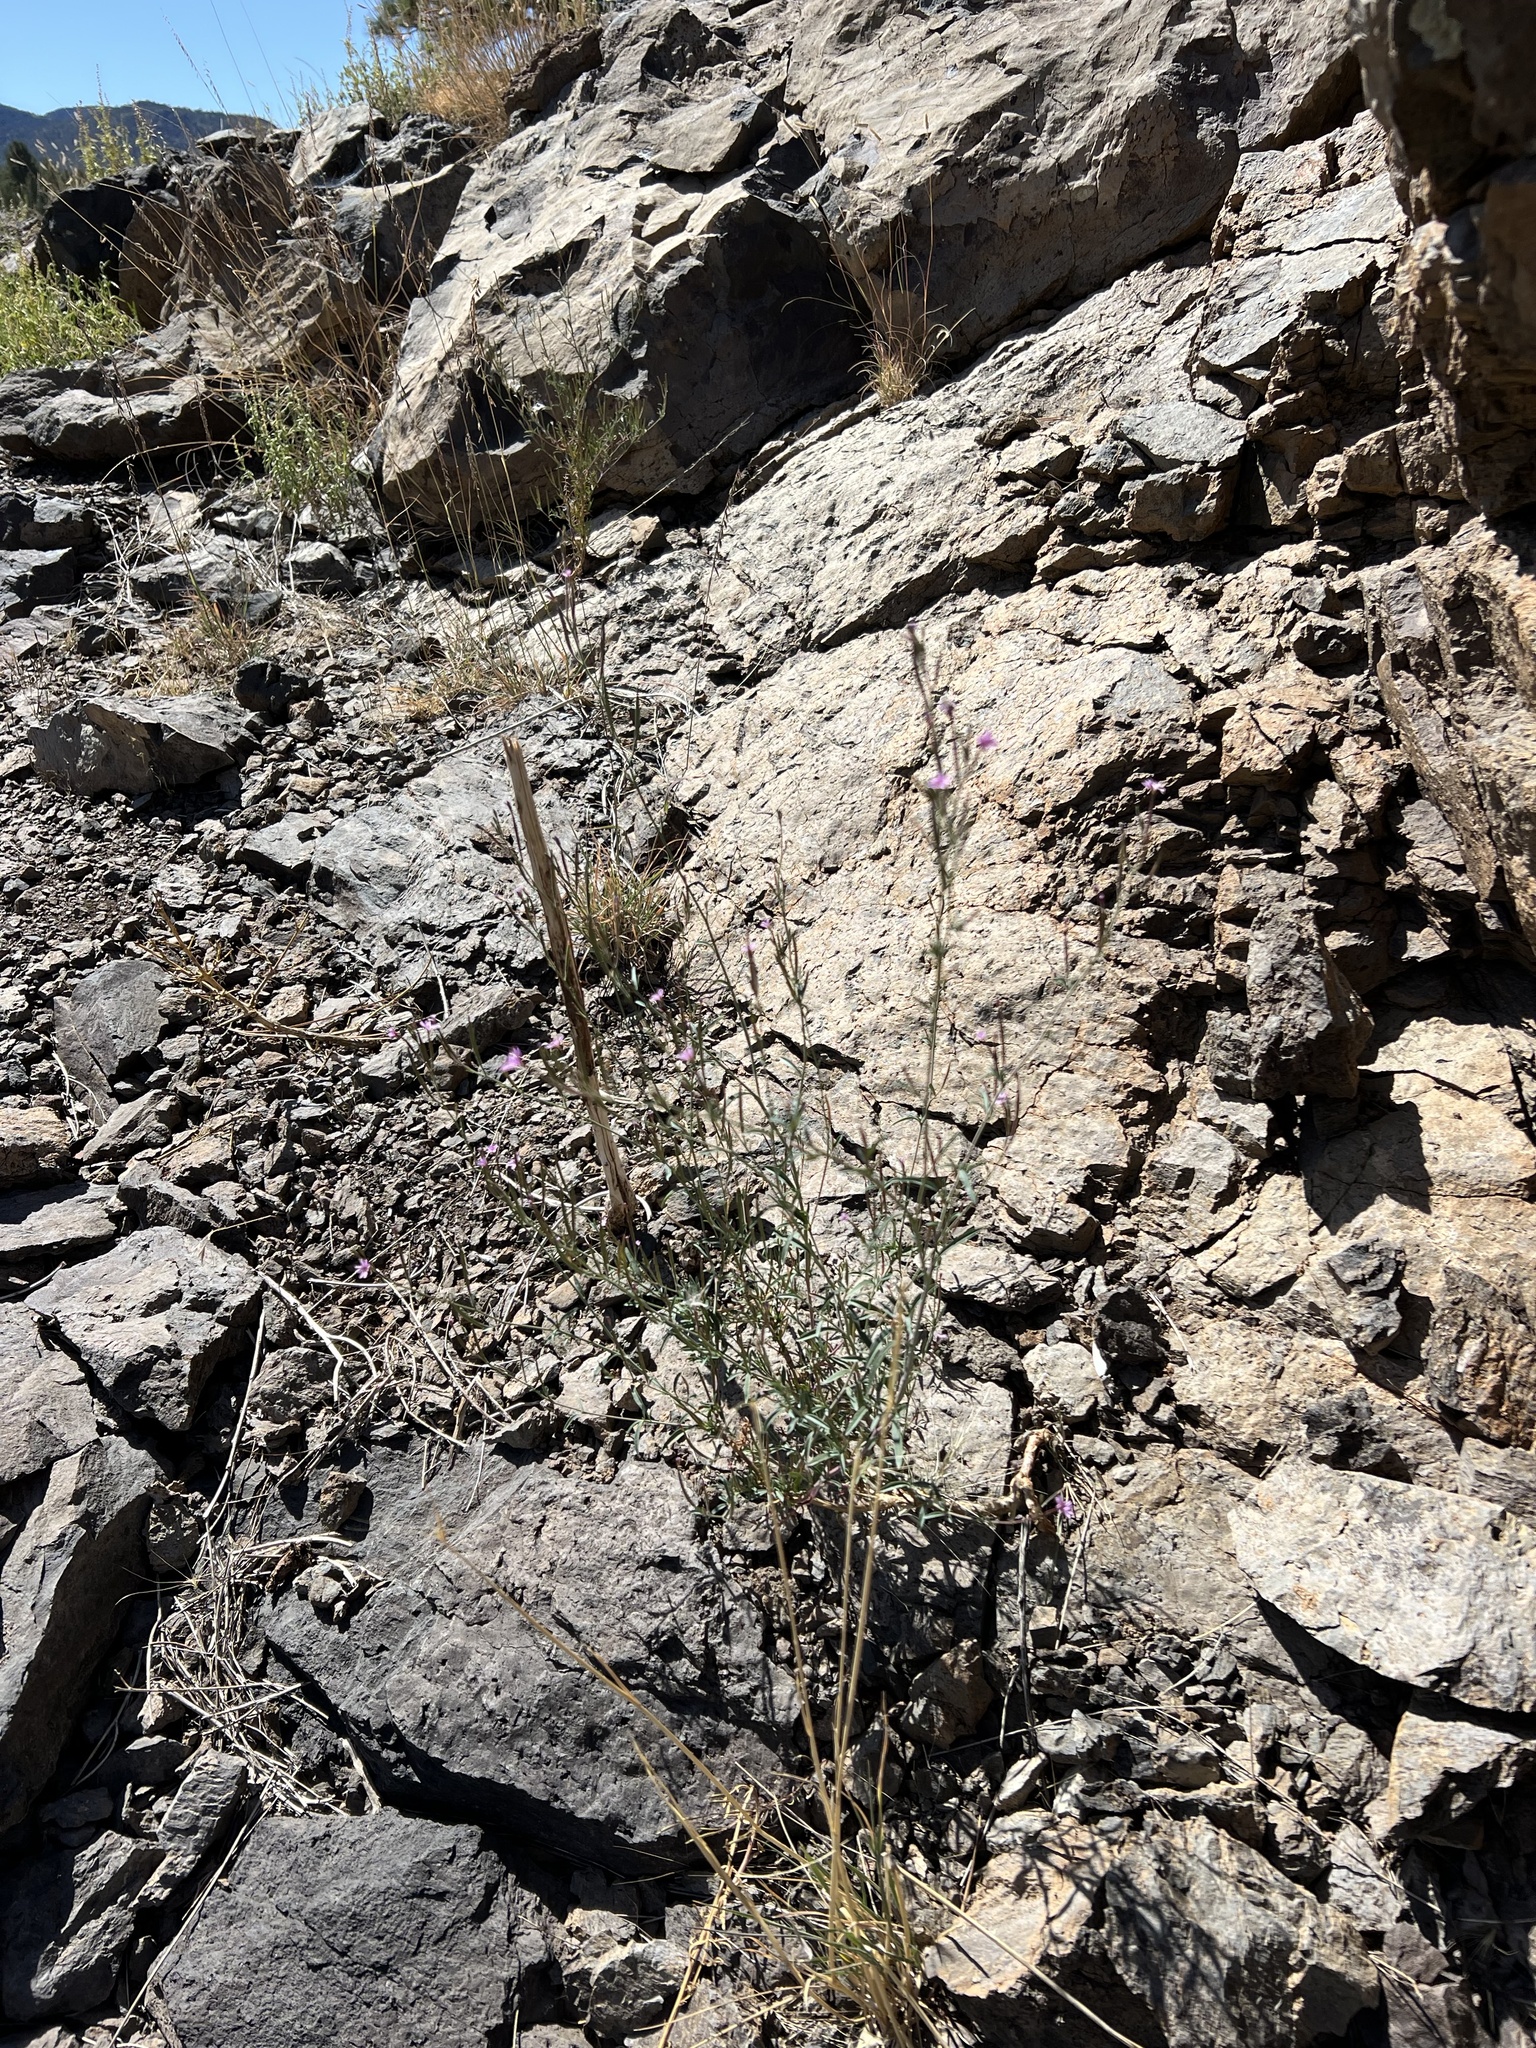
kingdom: Plantae
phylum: Tracheophyta
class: Magnoliopsida
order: Myrtales
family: Onagraceae
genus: Epilobium
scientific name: Epilobium brachycarpum
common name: Annual willowherb
